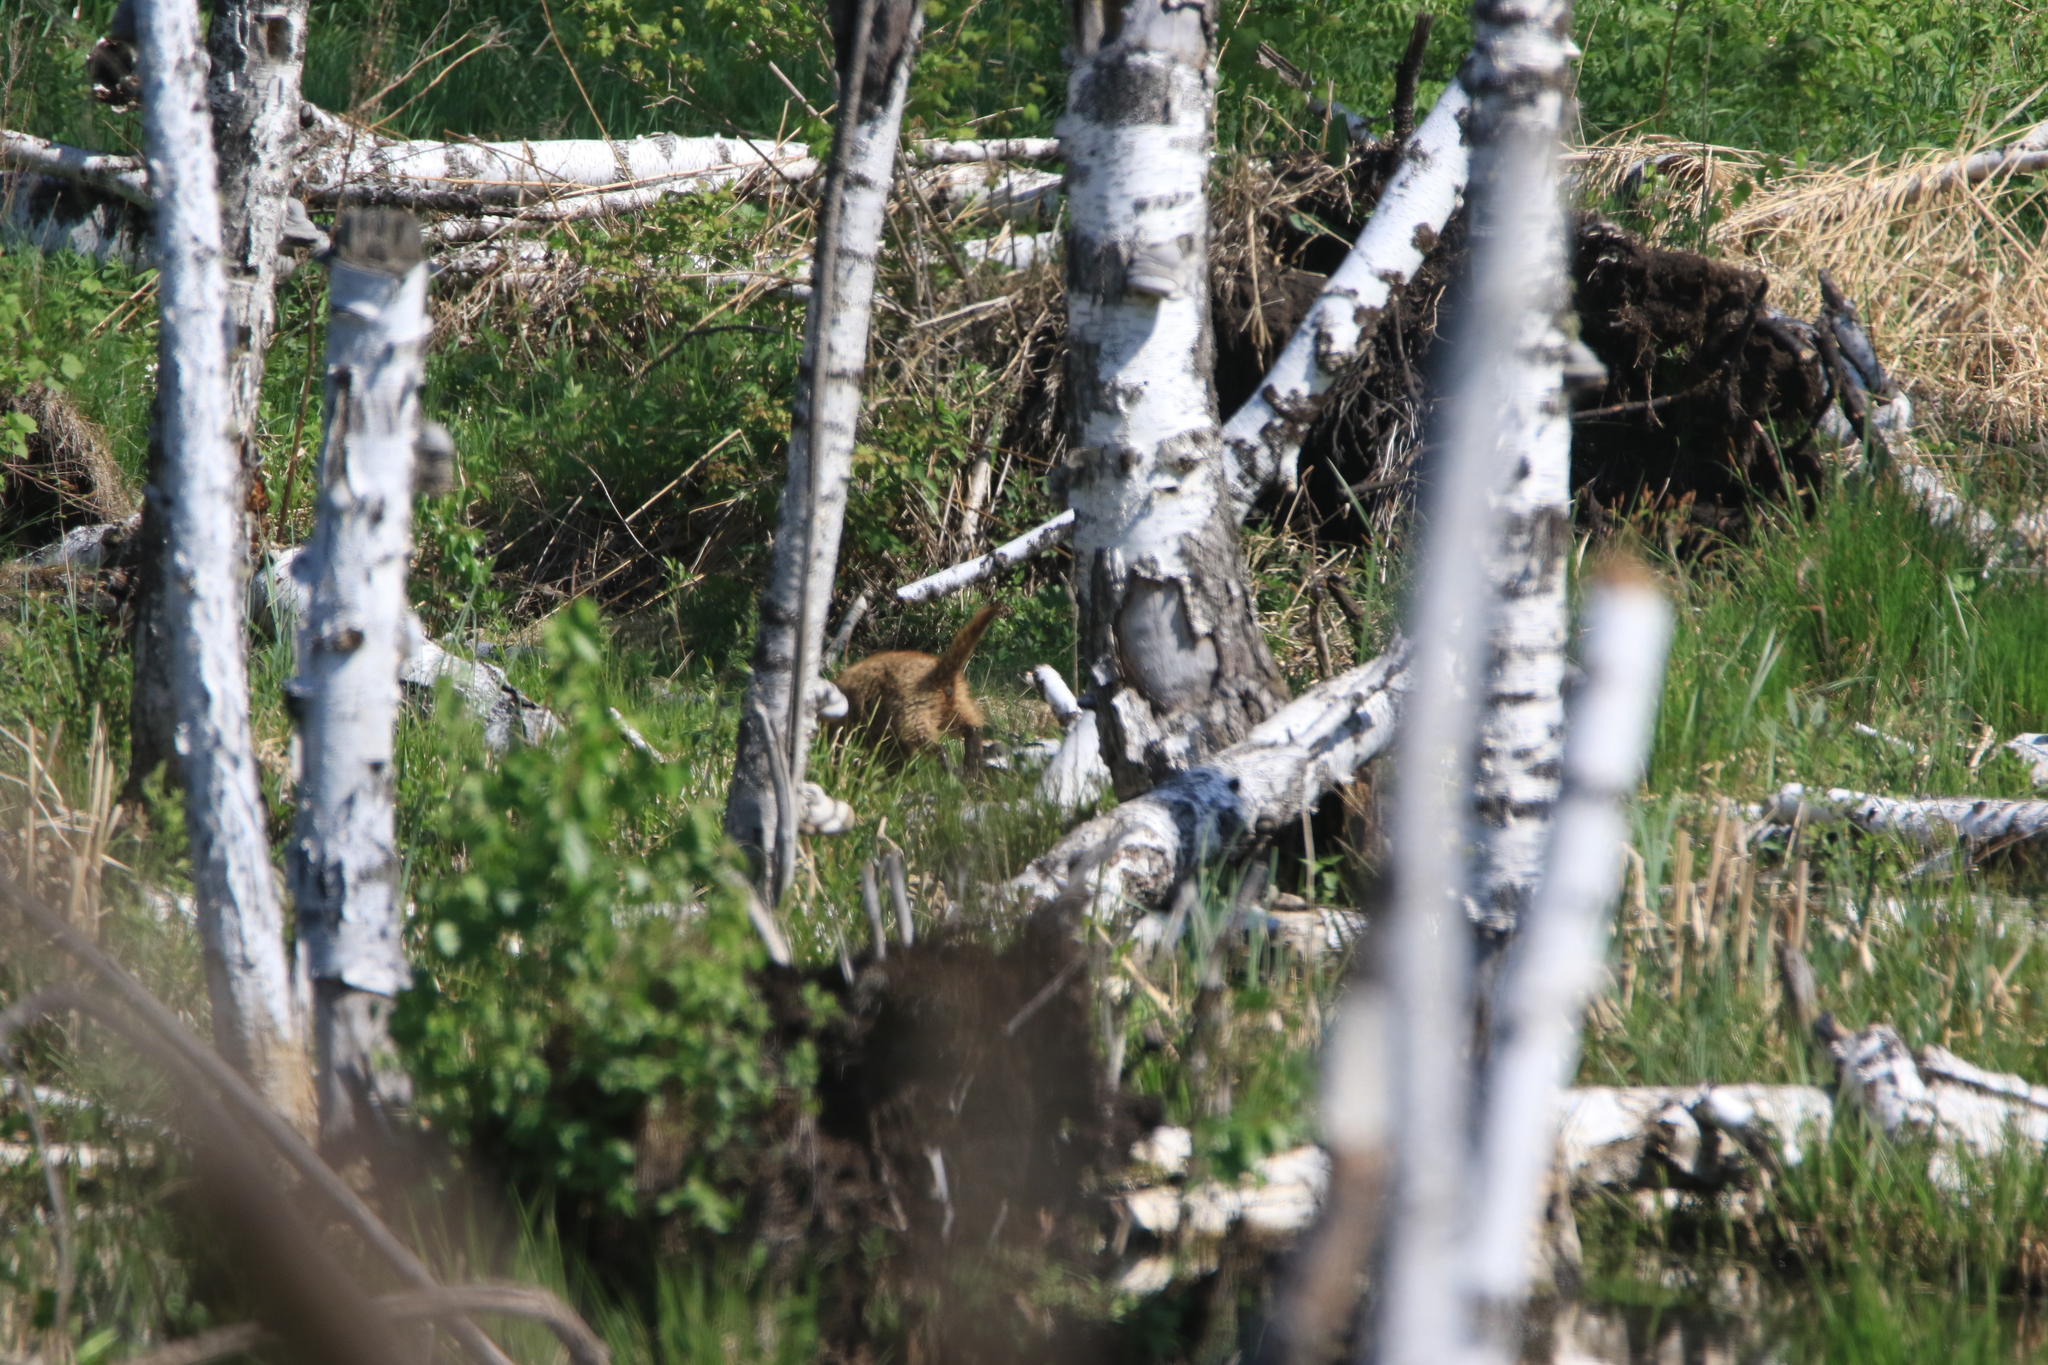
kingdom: Animalia
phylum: Chordata
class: Mammalia
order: Rodentia
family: Sciuridae
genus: Marmota
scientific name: Marmota kastschenkoi
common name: Forest steppe marmot
